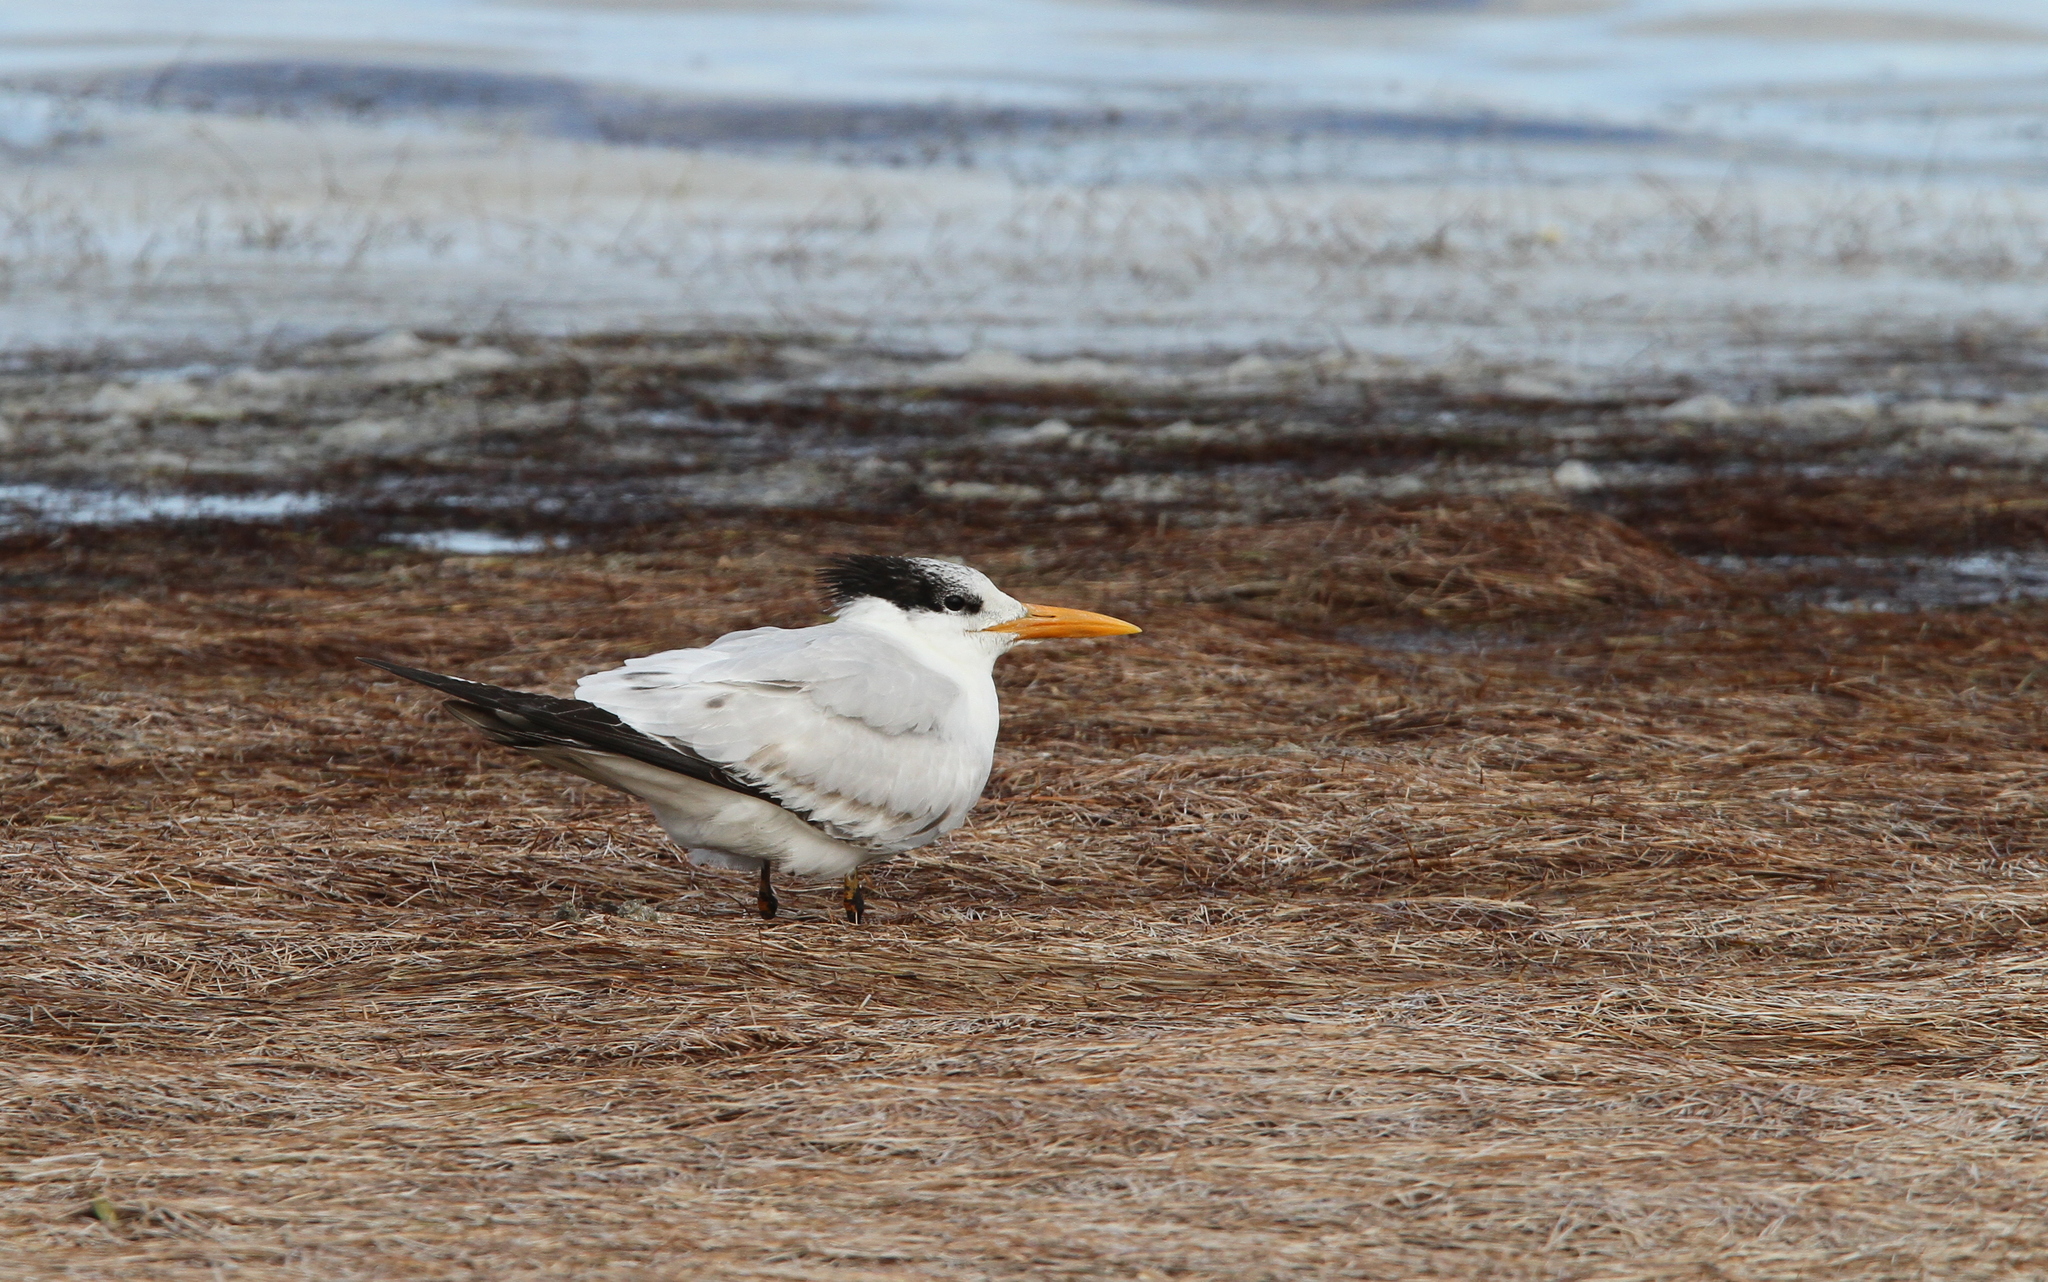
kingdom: Animalia
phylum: Chordata
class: Aves
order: Charadriiformes
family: Laridae
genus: Thalasseus
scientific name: Thalasseus maximus
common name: Royal tern
